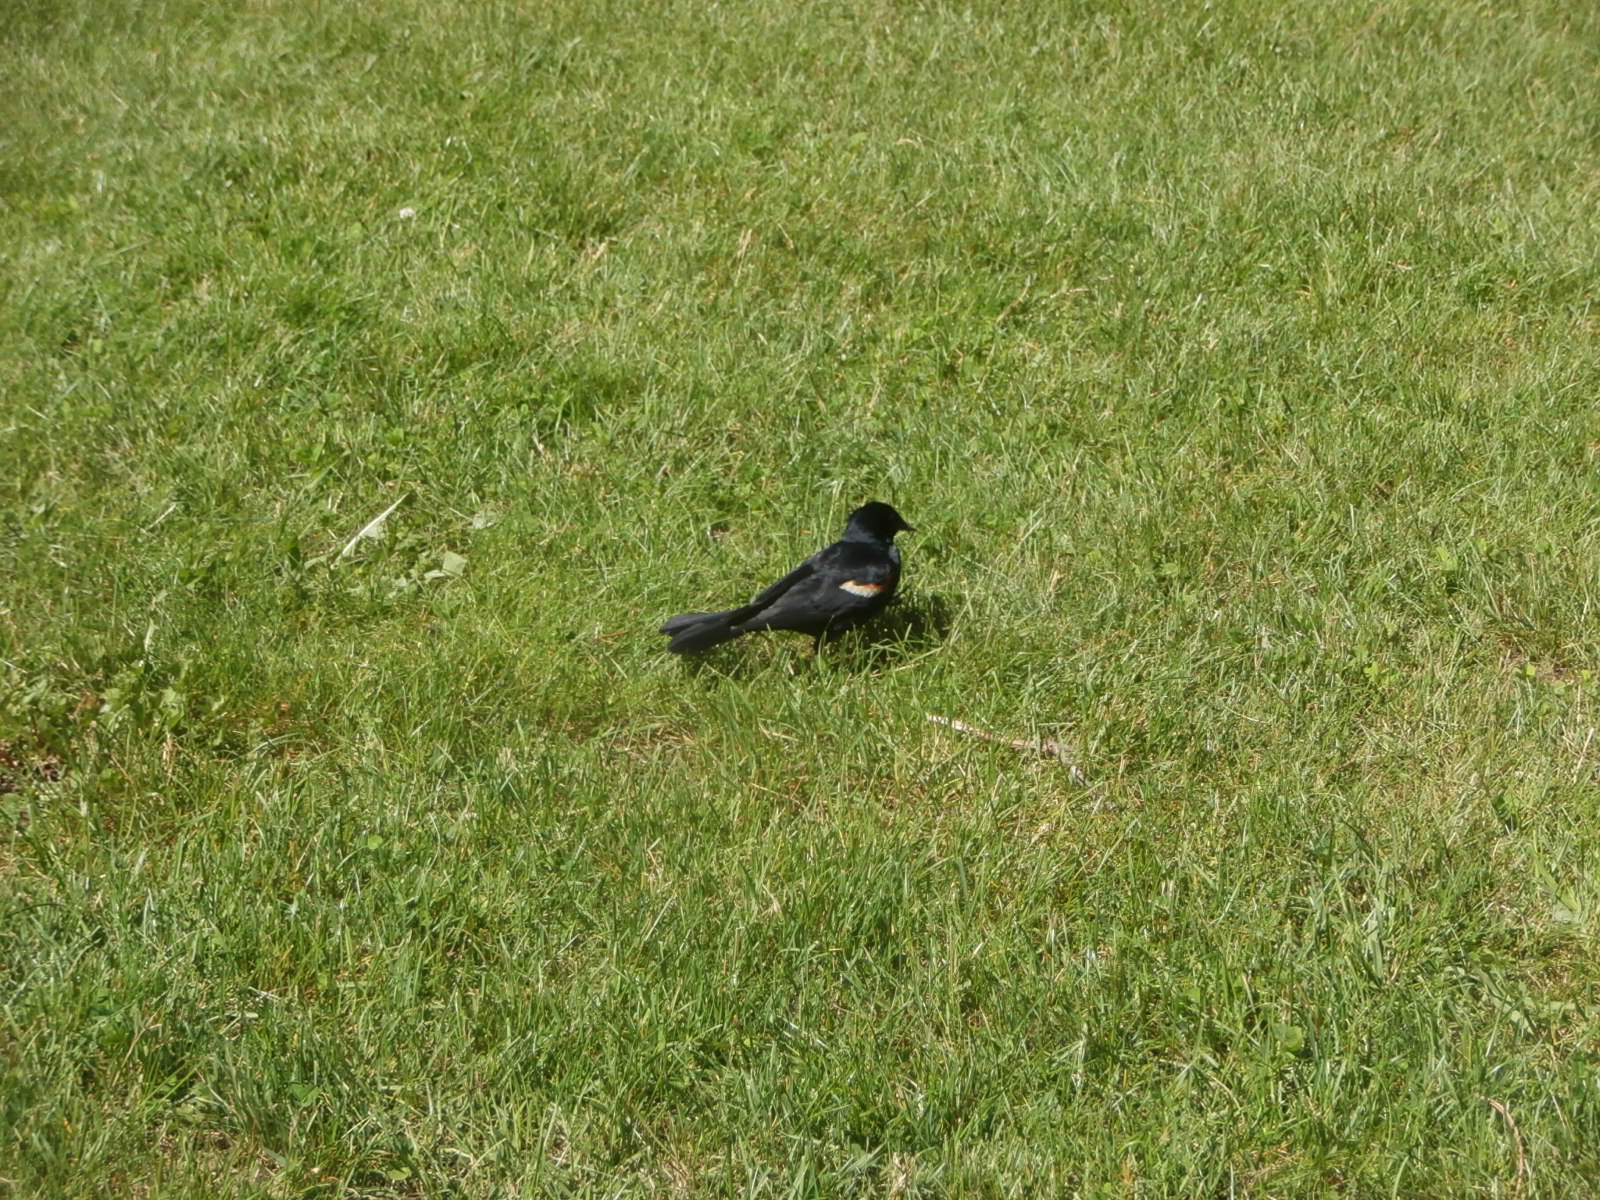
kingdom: Animalia
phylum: Chordata
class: Aves
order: Passeriformes
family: Icteridae
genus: Agelaius
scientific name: Agelaius phoeniceus
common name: Red-winged blackbird
